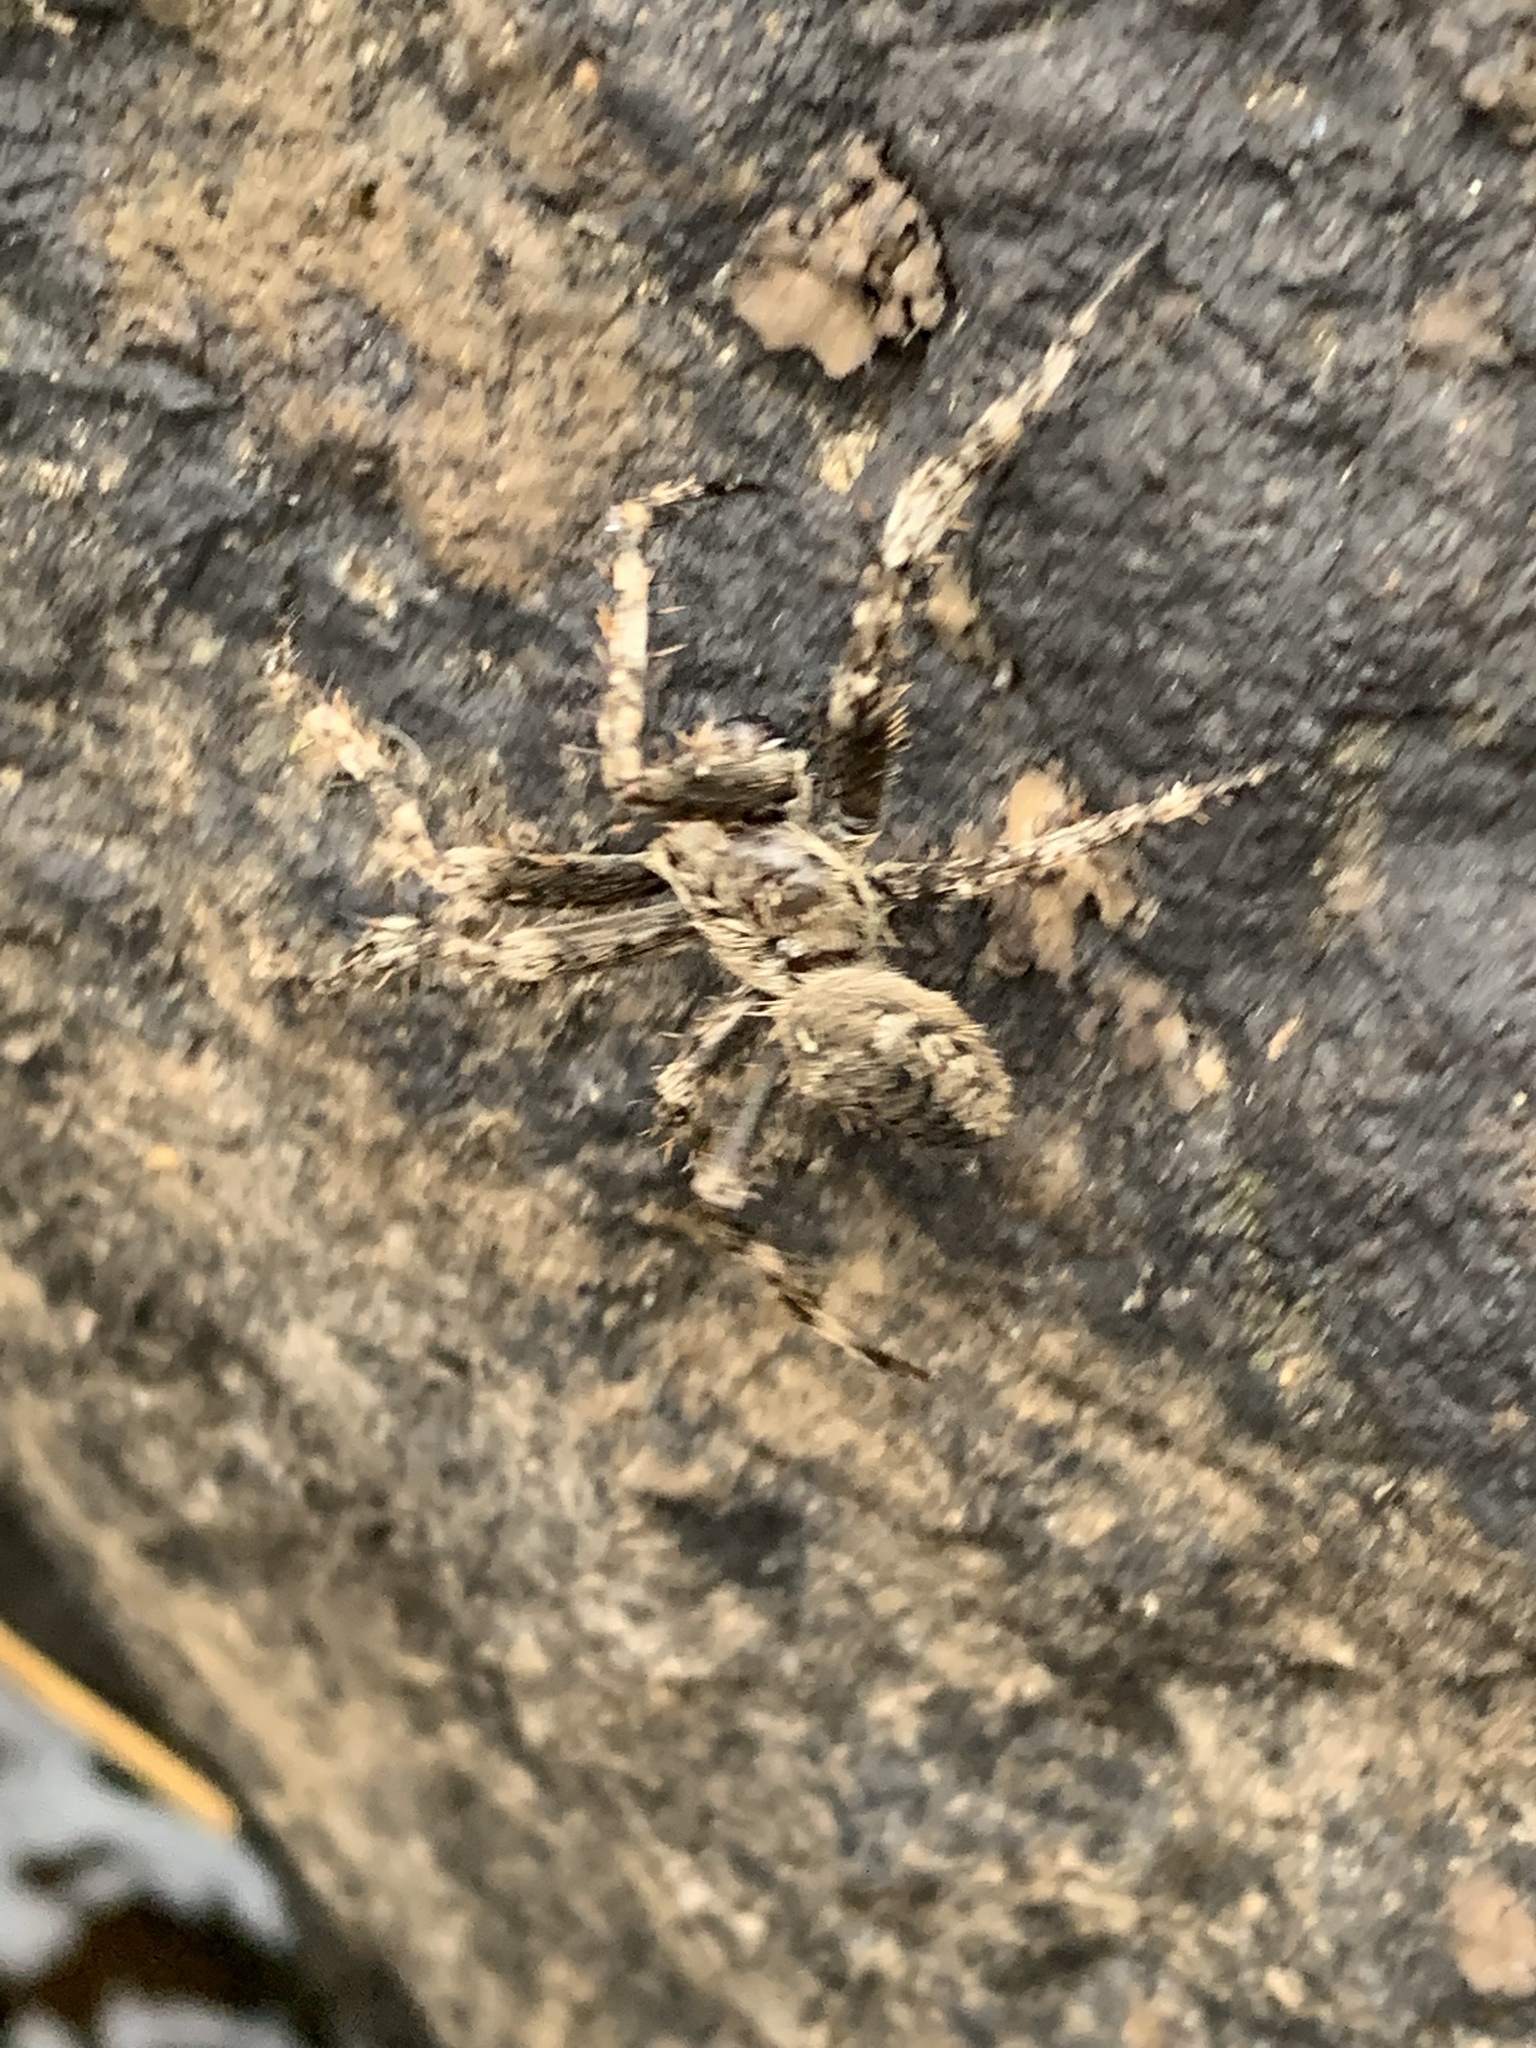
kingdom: Animalia
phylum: Arthropoda
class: Arachnida
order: Araneae
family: Araneidae
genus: Araneus
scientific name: Araneus saevus
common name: Fierce orbweaver
